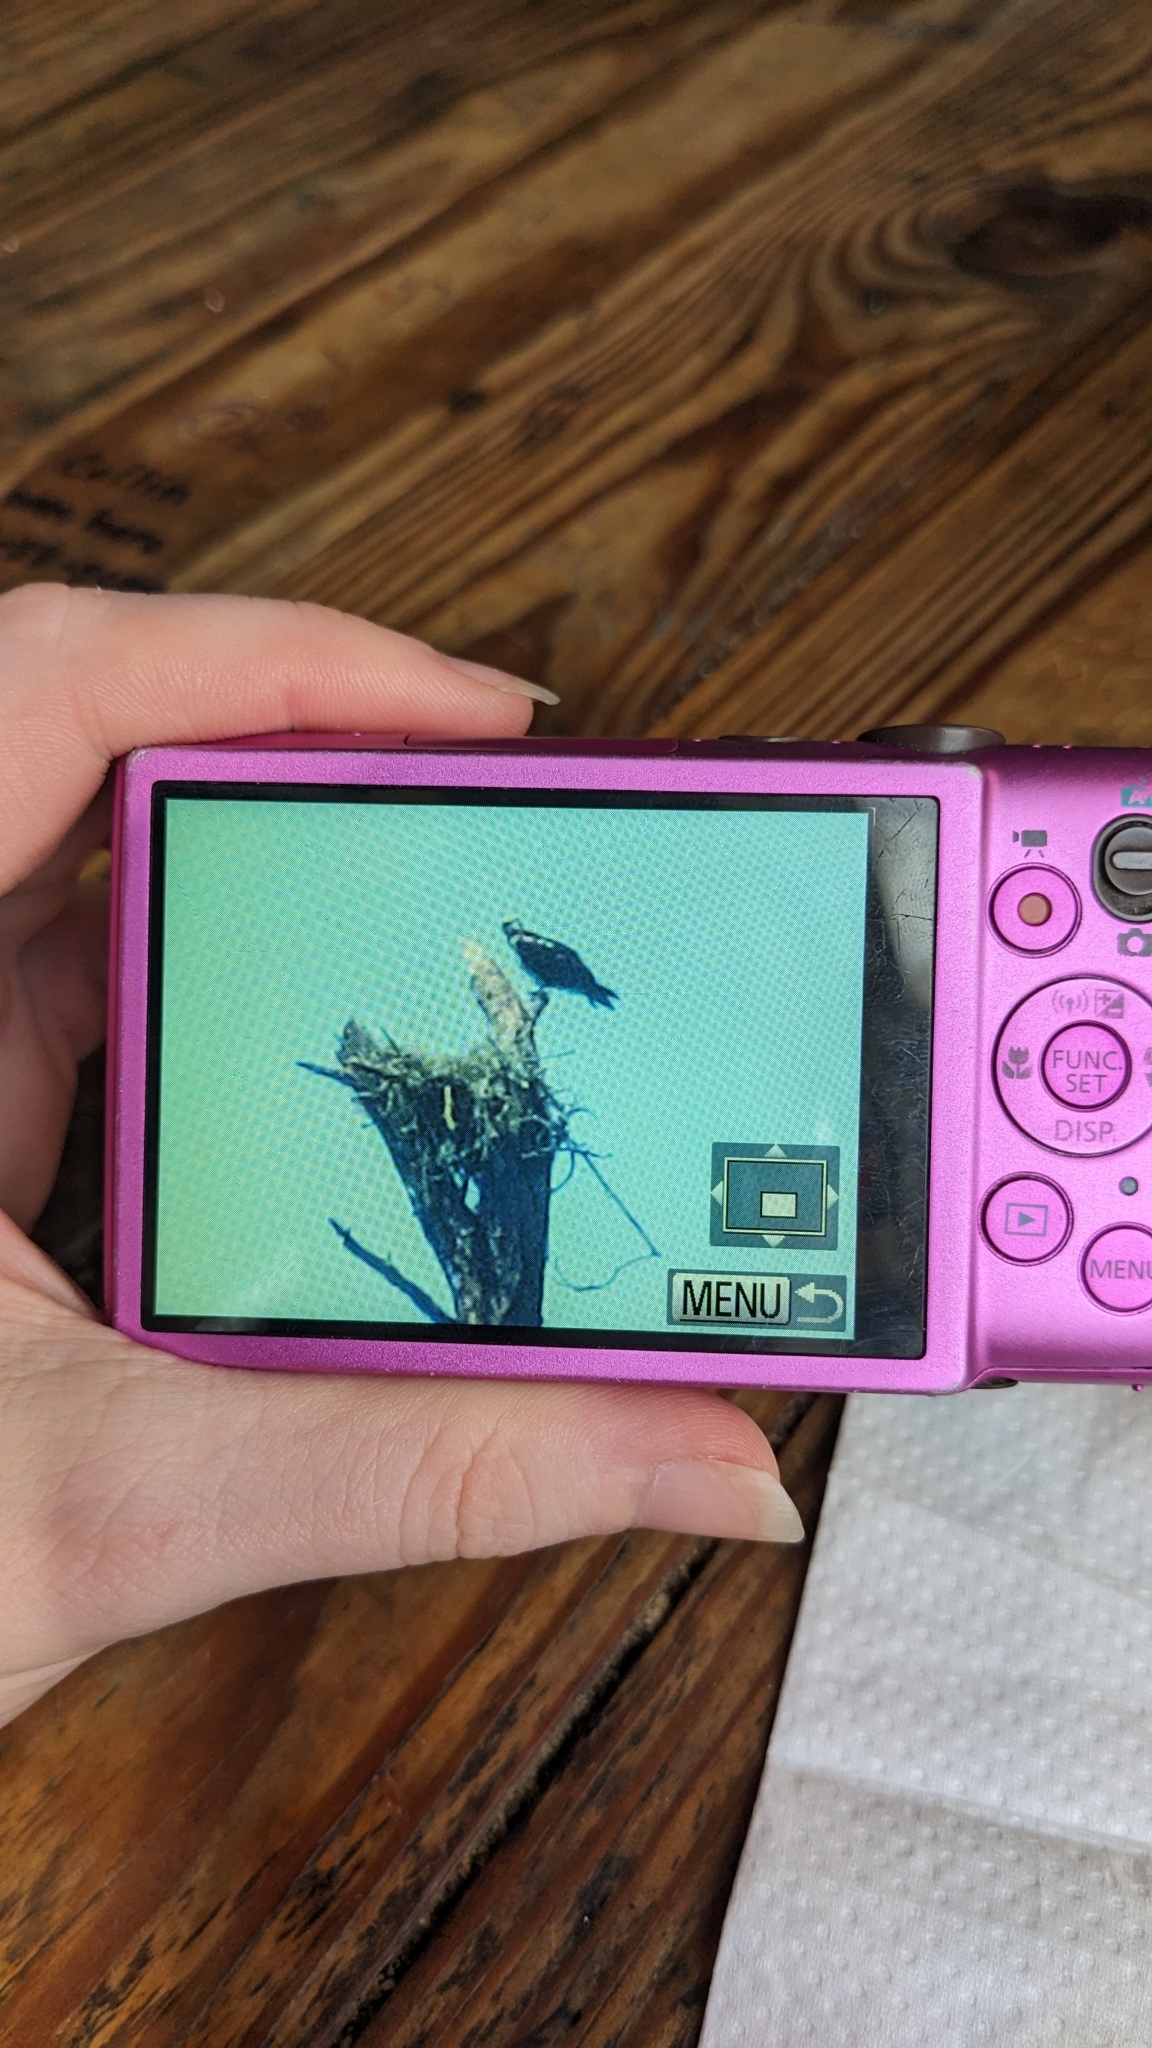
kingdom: Animalia
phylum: Chordata
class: Aves
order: Accipitriformes
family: Pandionidae
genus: Pandion
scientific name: Pandion haliaetus
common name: Osprey
